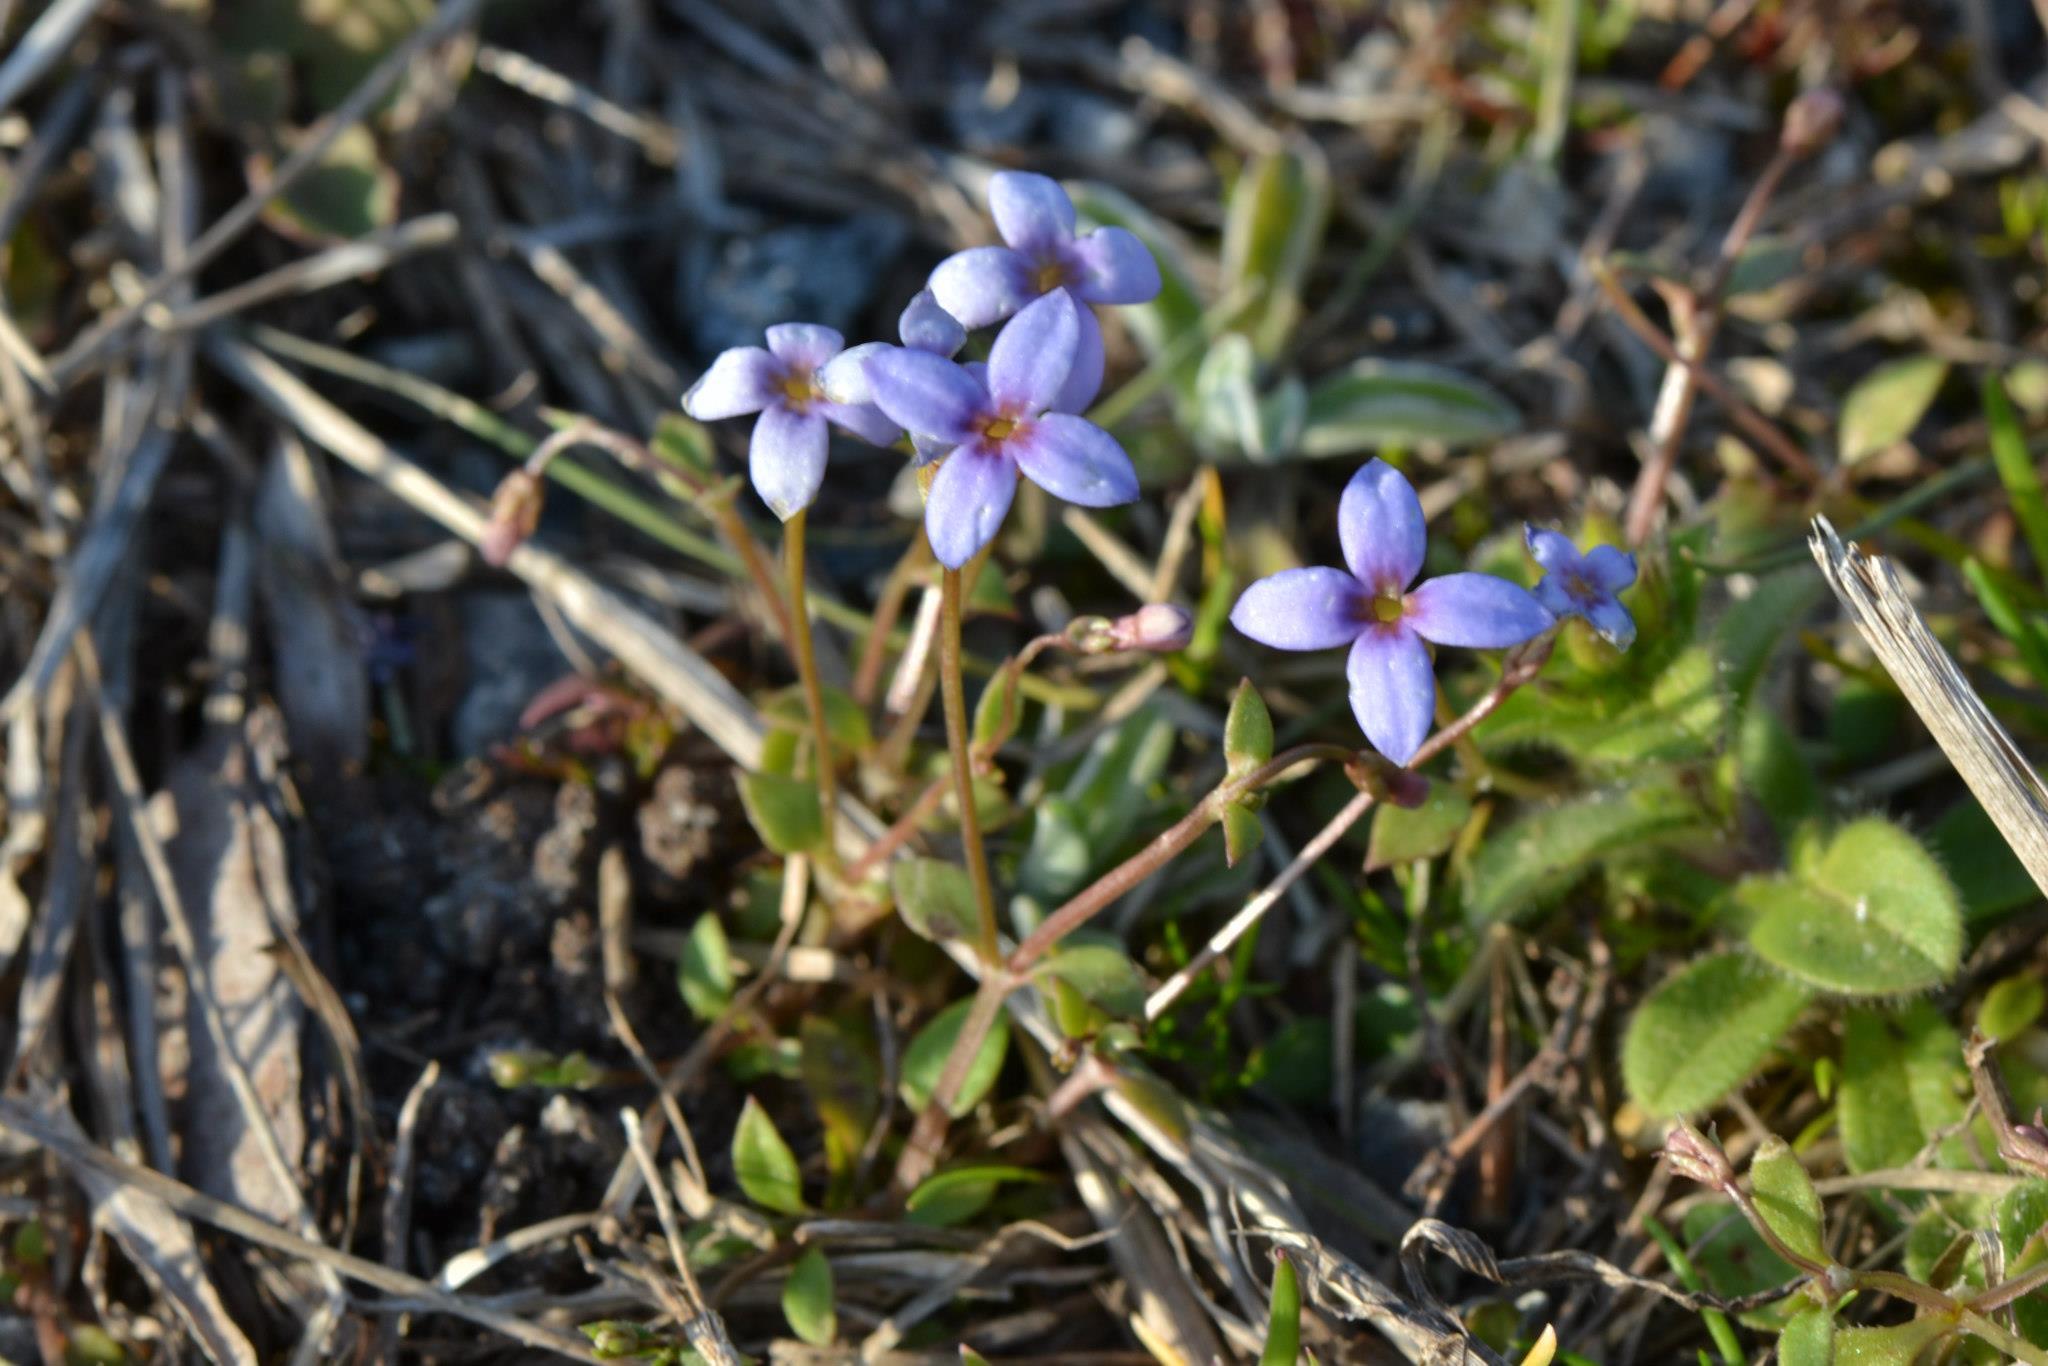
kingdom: Plantae
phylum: Tracheophyta
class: Magnoliopsida
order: Gentianales
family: Rubiaceae
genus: Houstonia
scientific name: Houstonia pusilla
